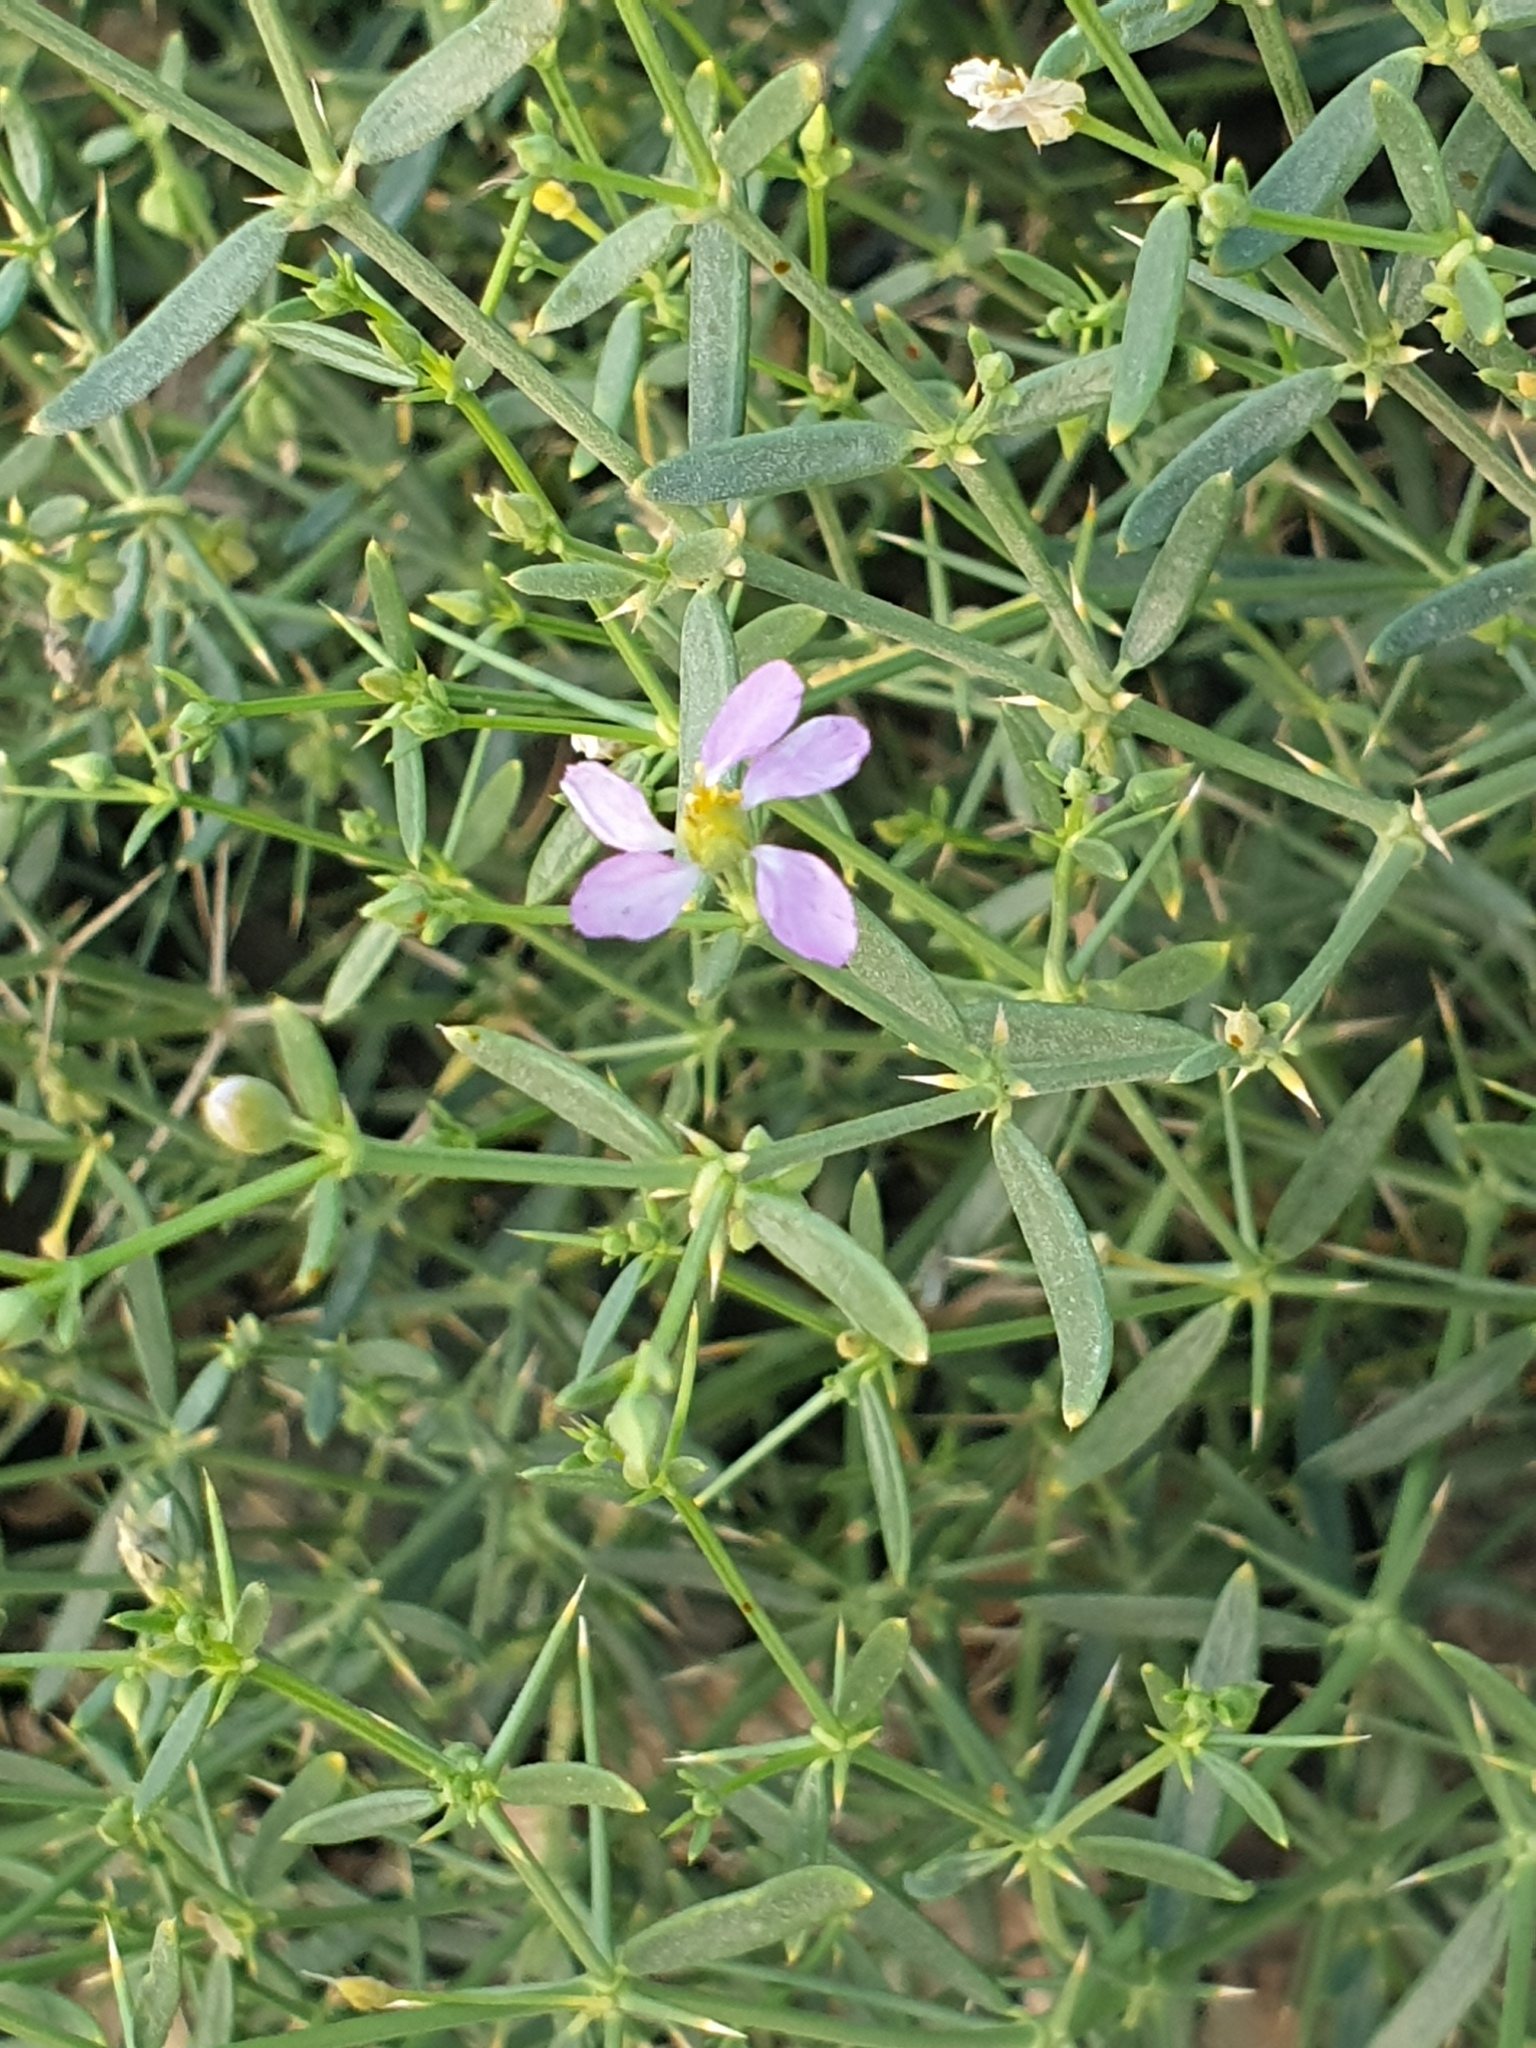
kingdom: Plantae
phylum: Tracheophyta
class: Magnoliopsida
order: Zygophyllales
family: Zygophyllaceae
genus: Fagonia
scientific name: Fagonia indica
